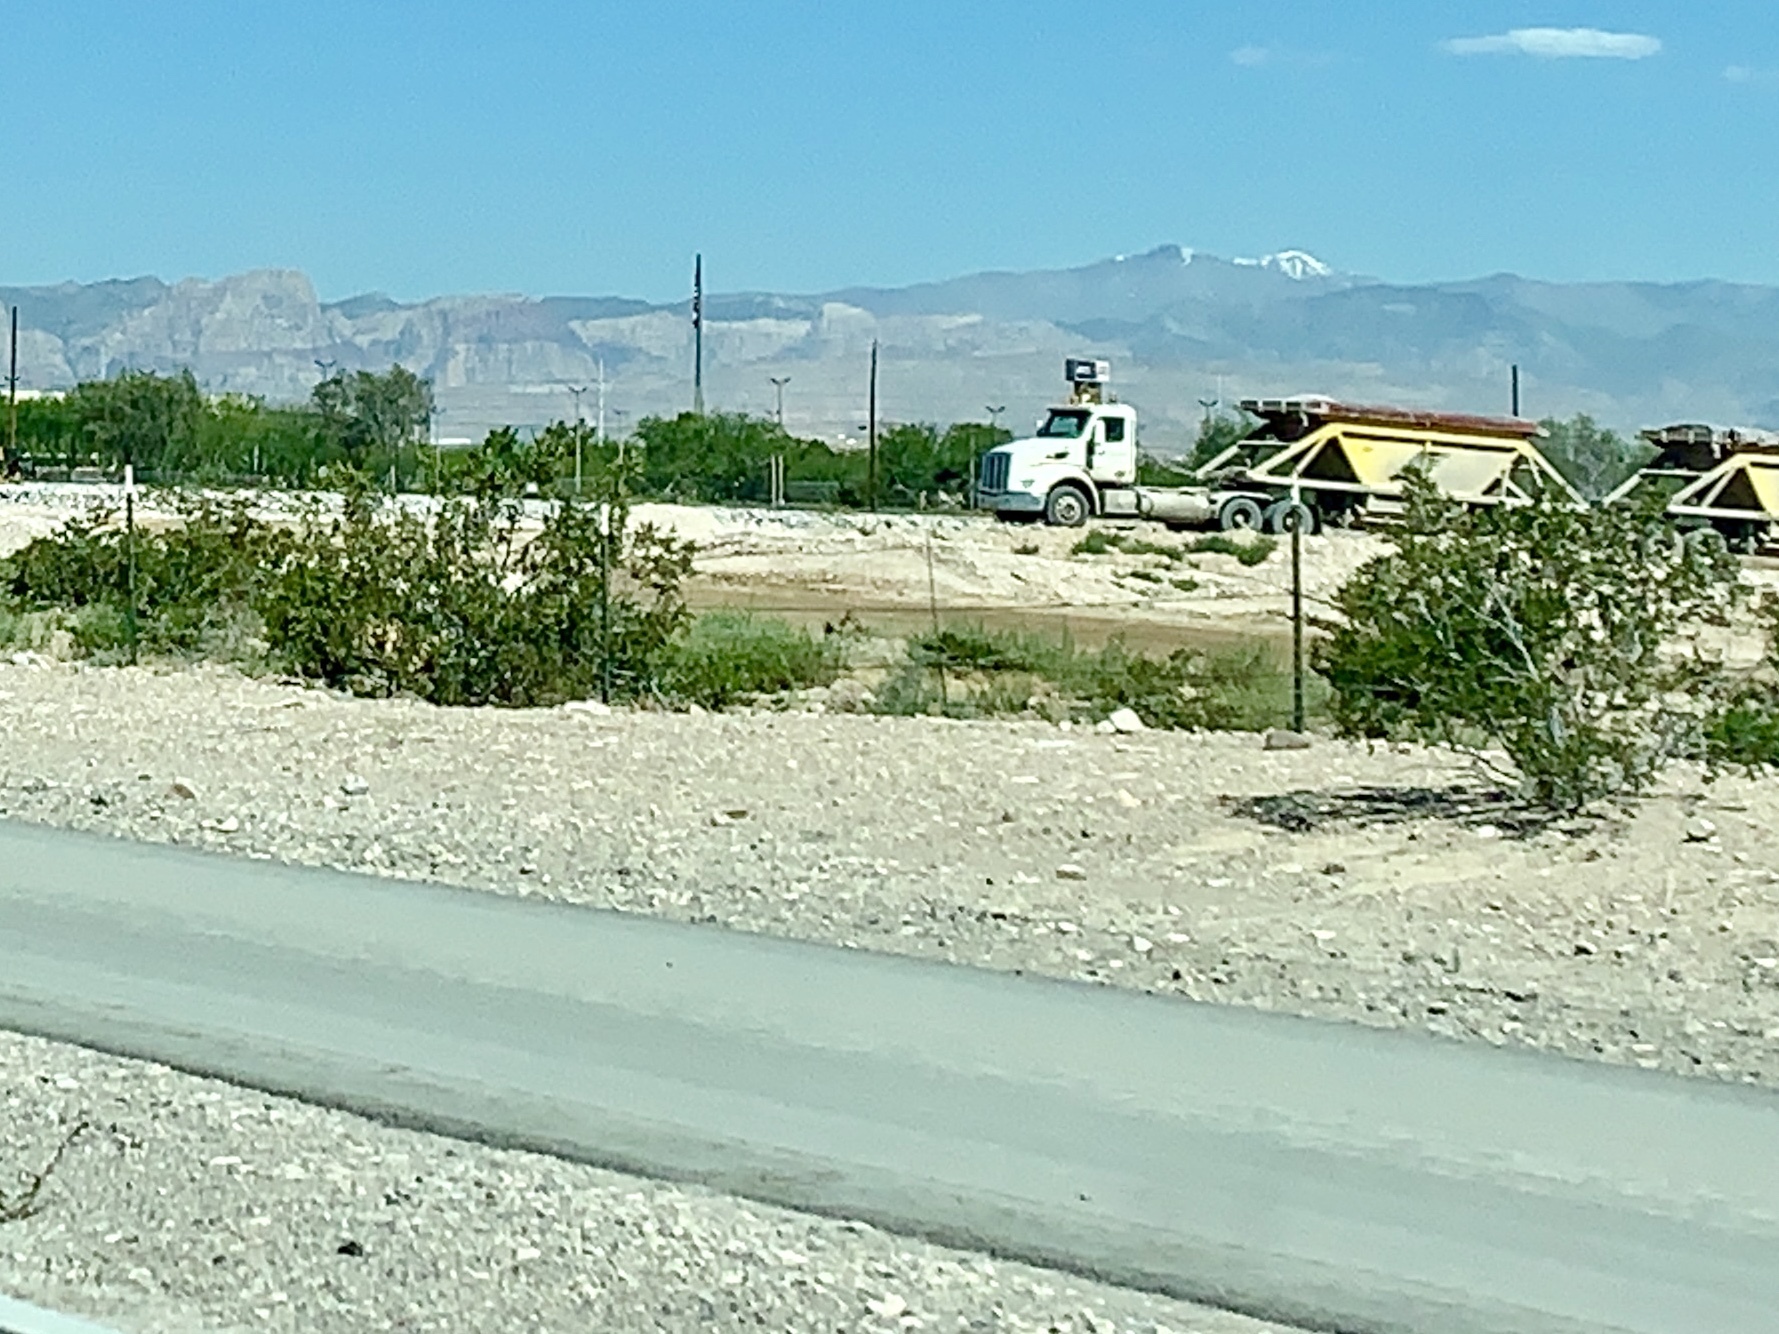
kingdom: Plantae
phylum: Tracheophyta
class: Magnoliopsida
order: Zygophyllales
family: Zygophyllaceae
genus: Larrea
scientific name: Larrea tridentata
